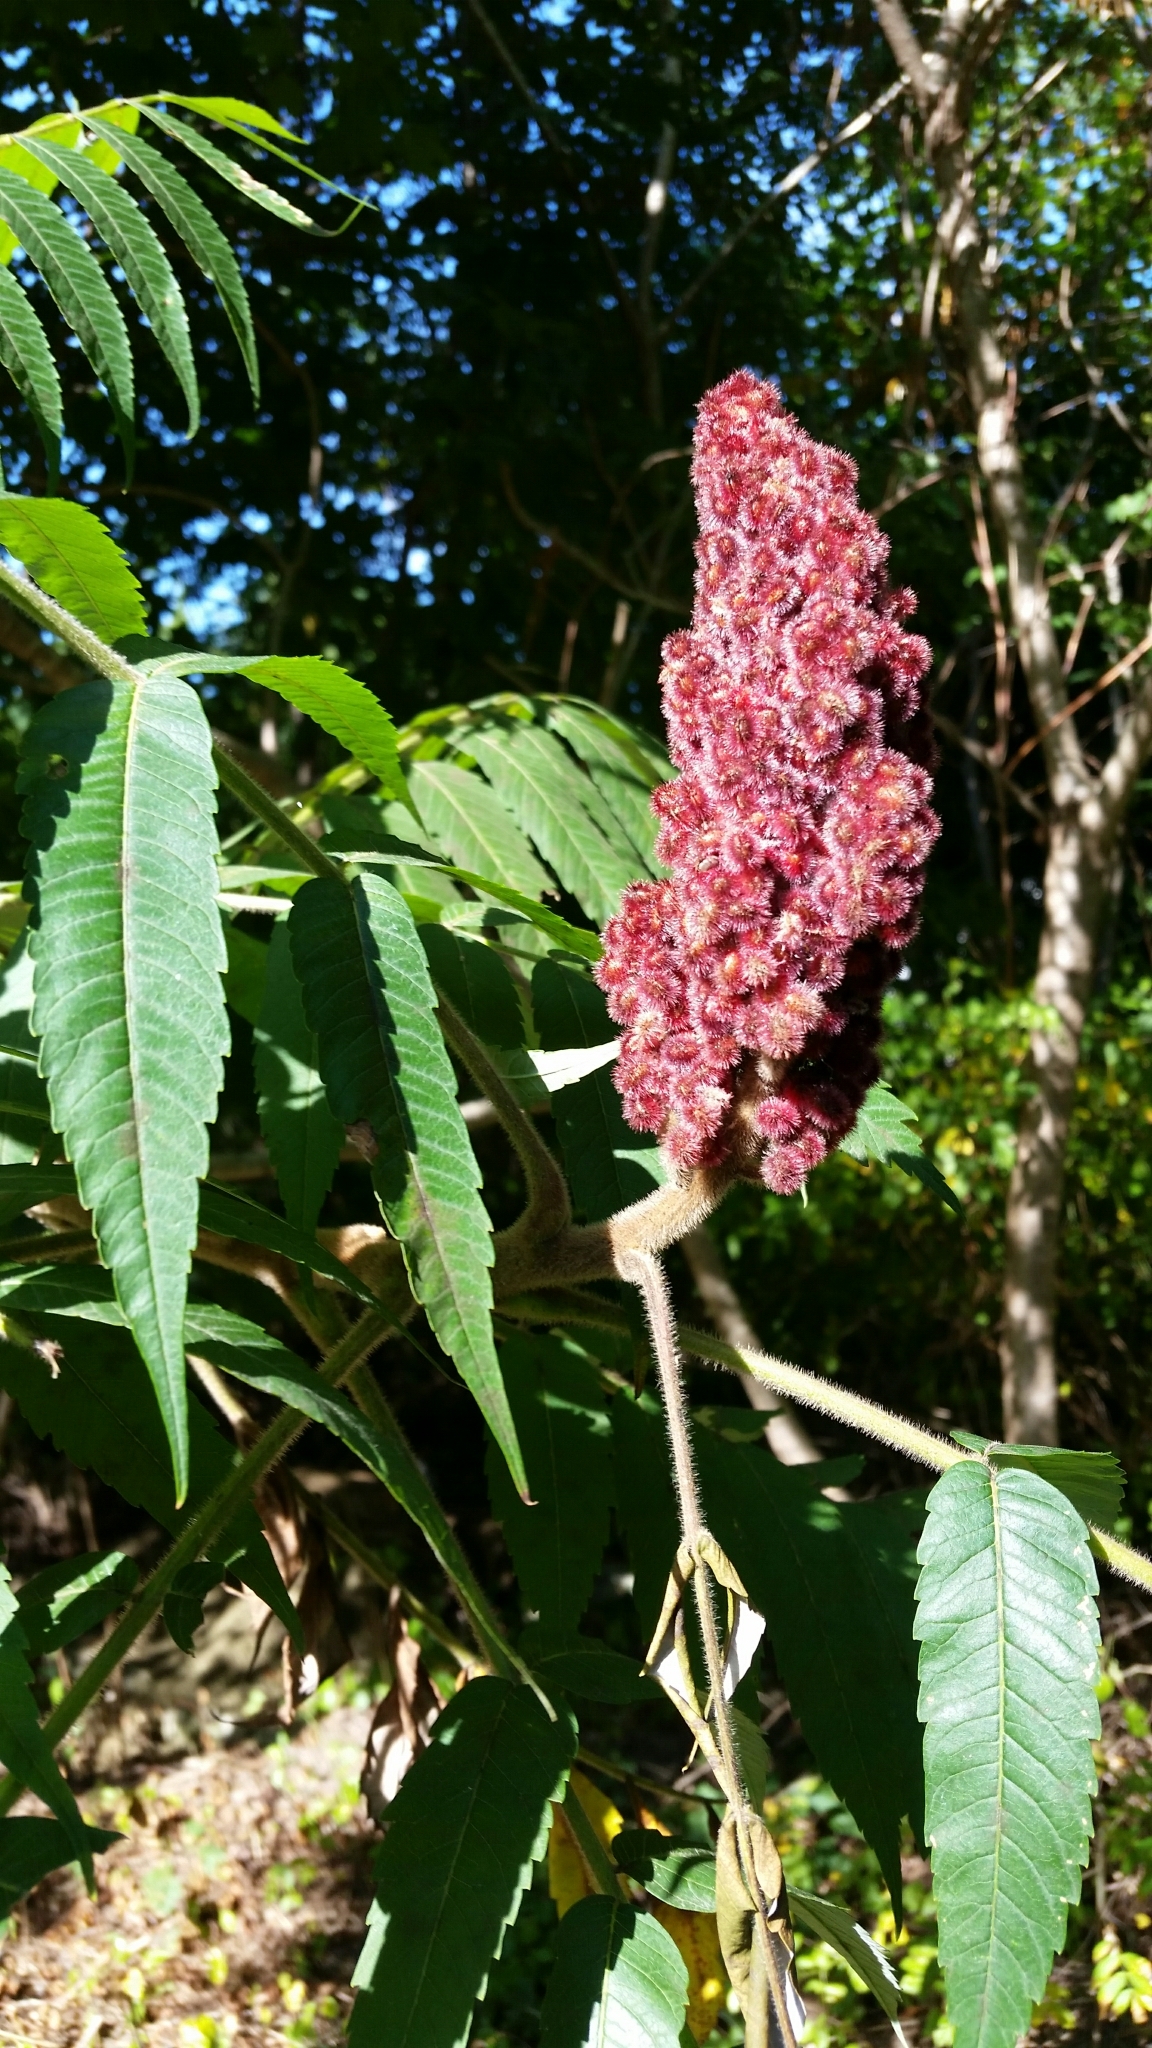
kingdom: Plantae
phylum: Tracheophyta
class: Magnoliopsida
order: Sapindales
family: Anacardiaceae
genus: Rhus
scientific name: Rhus typhina
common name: Staghorn sumac
